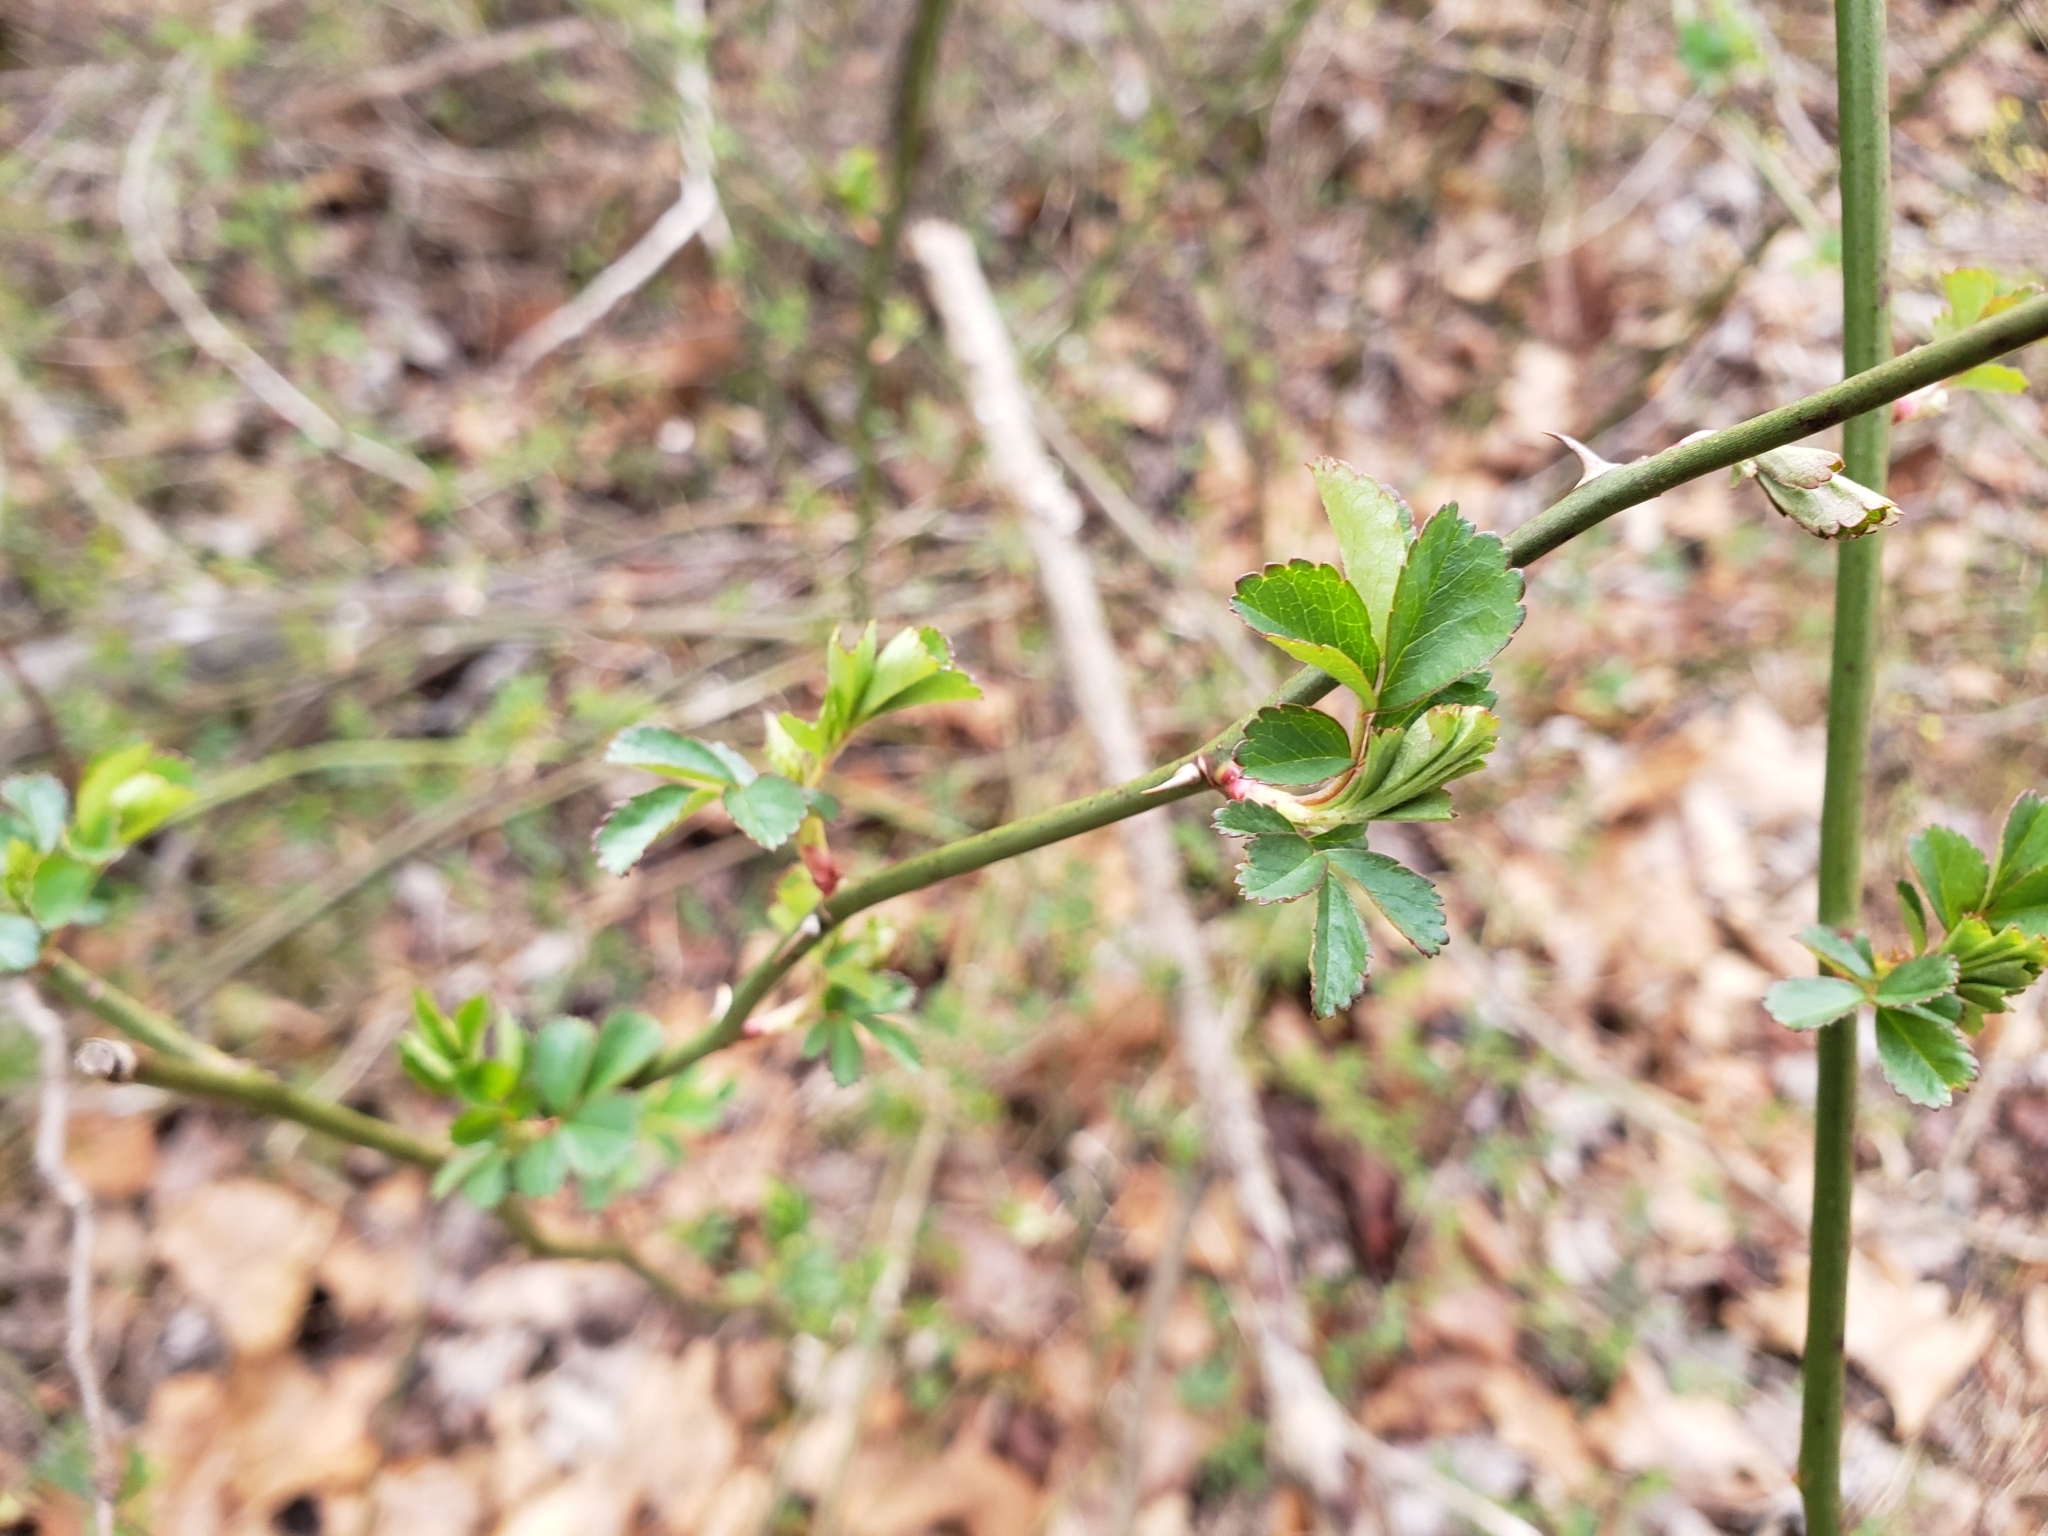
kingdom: Plantae
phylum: Tracheophyta
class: Magnoliopsida
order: Rosales
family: Rosaceae
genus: Rosa
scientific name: Rosa multiflora
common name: Multiflora rose
